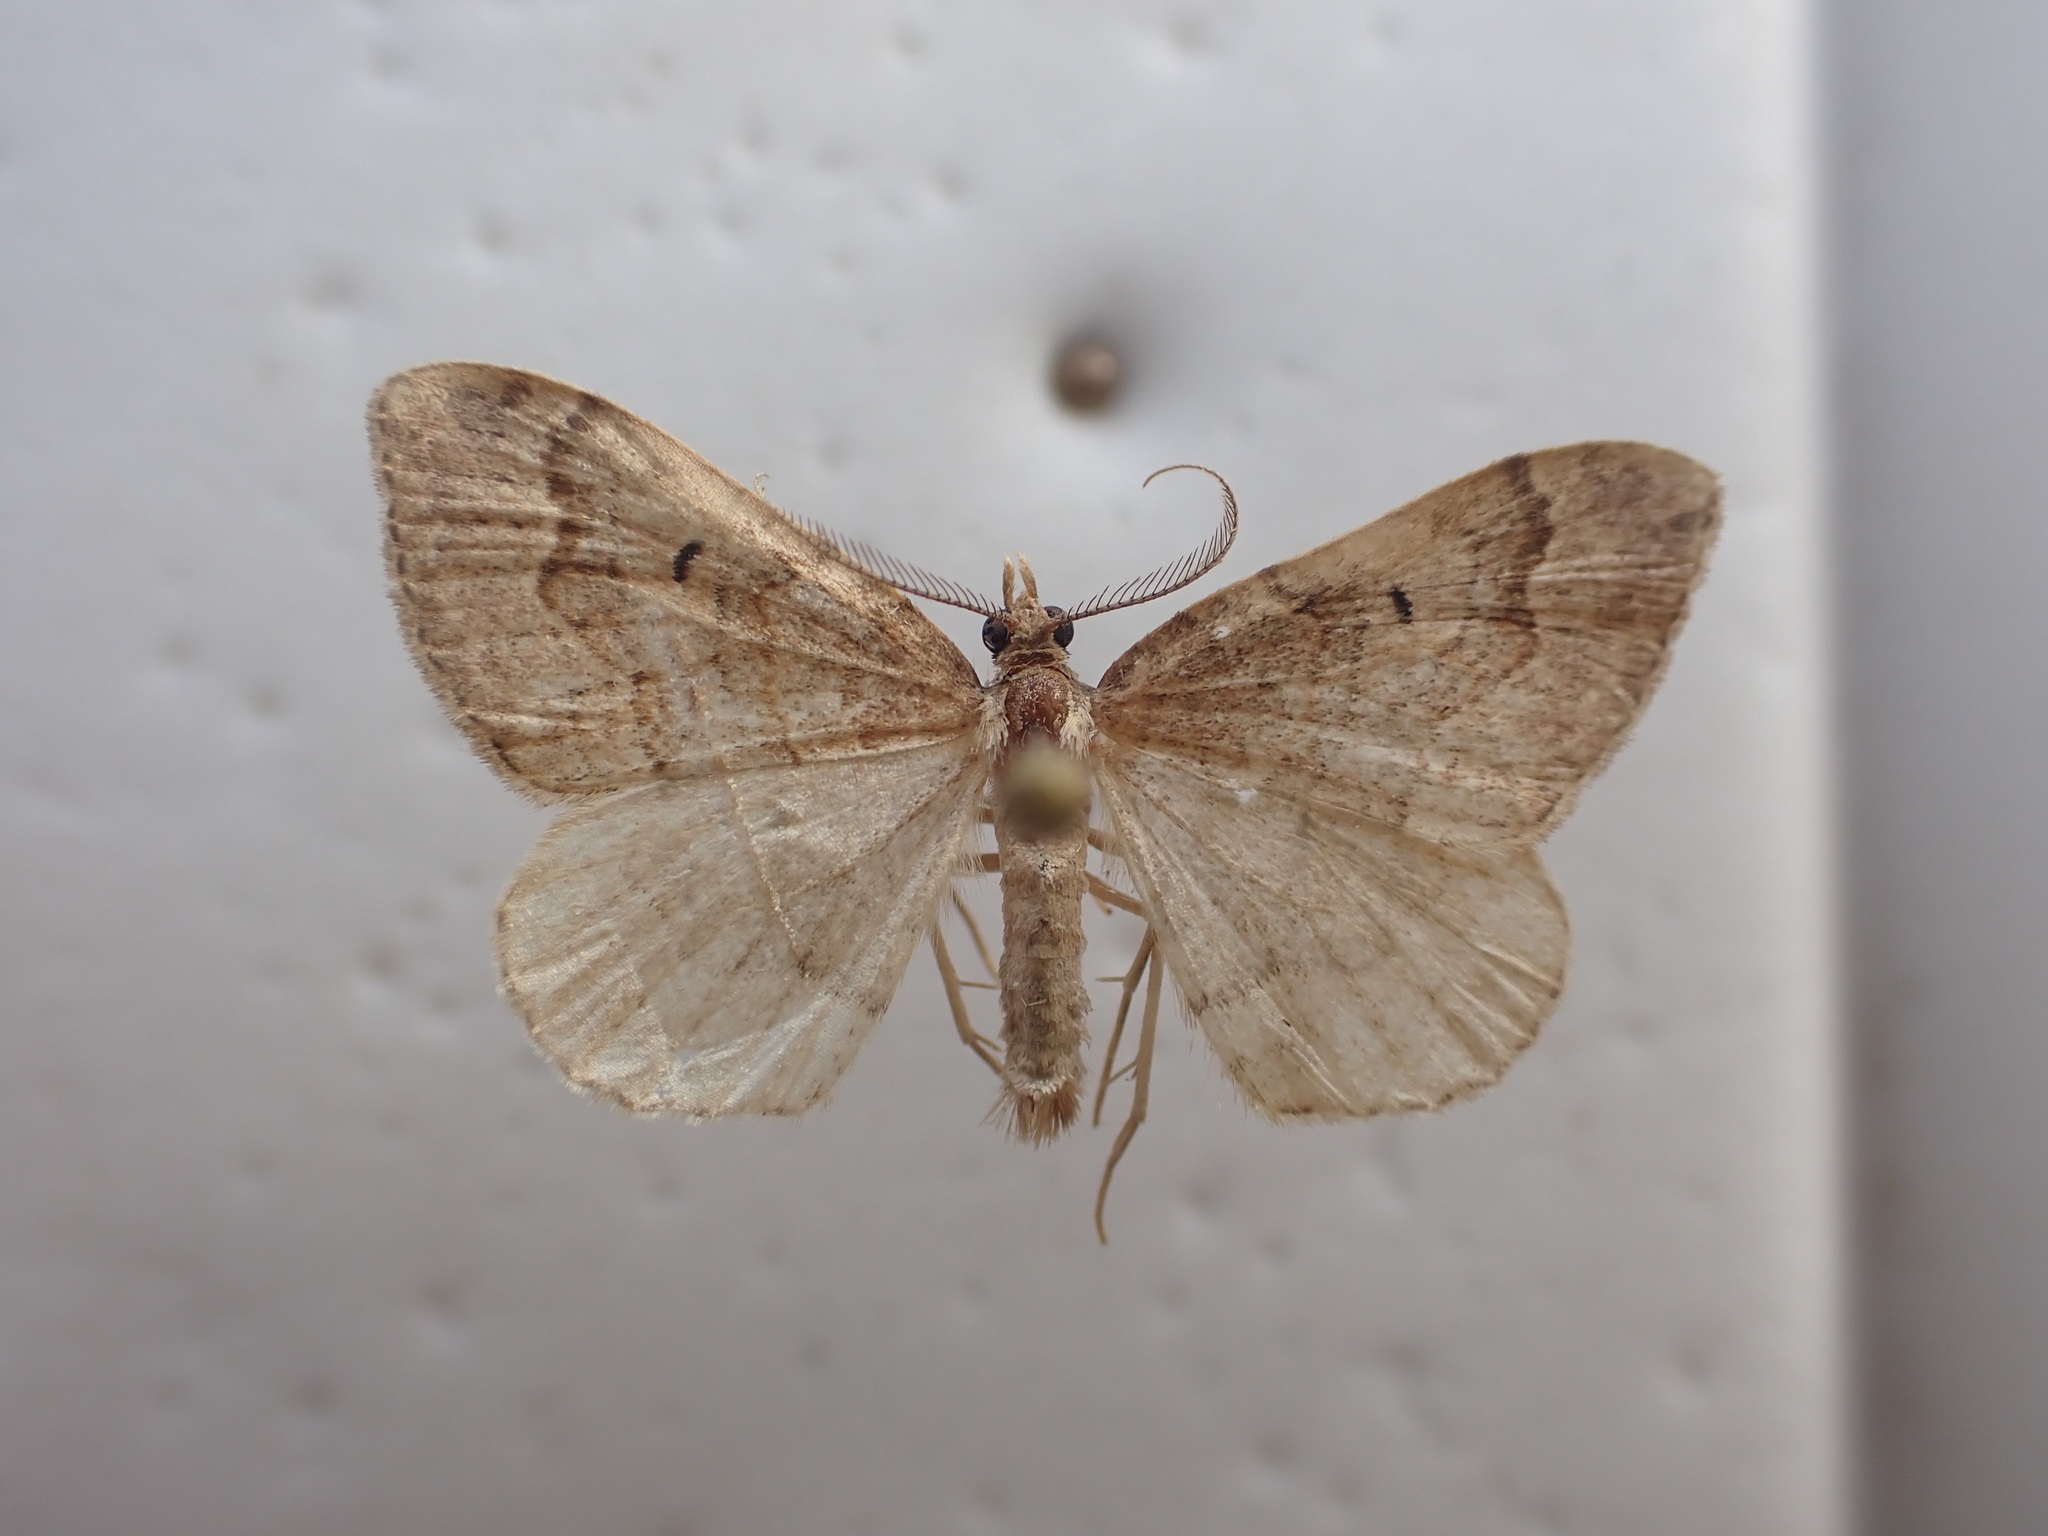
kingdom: Animalia
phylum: Arthropoda
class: Insecta
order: Lepidoptera
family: Geometridae
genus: Epyaxa
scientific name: Epyaxa rosearia
